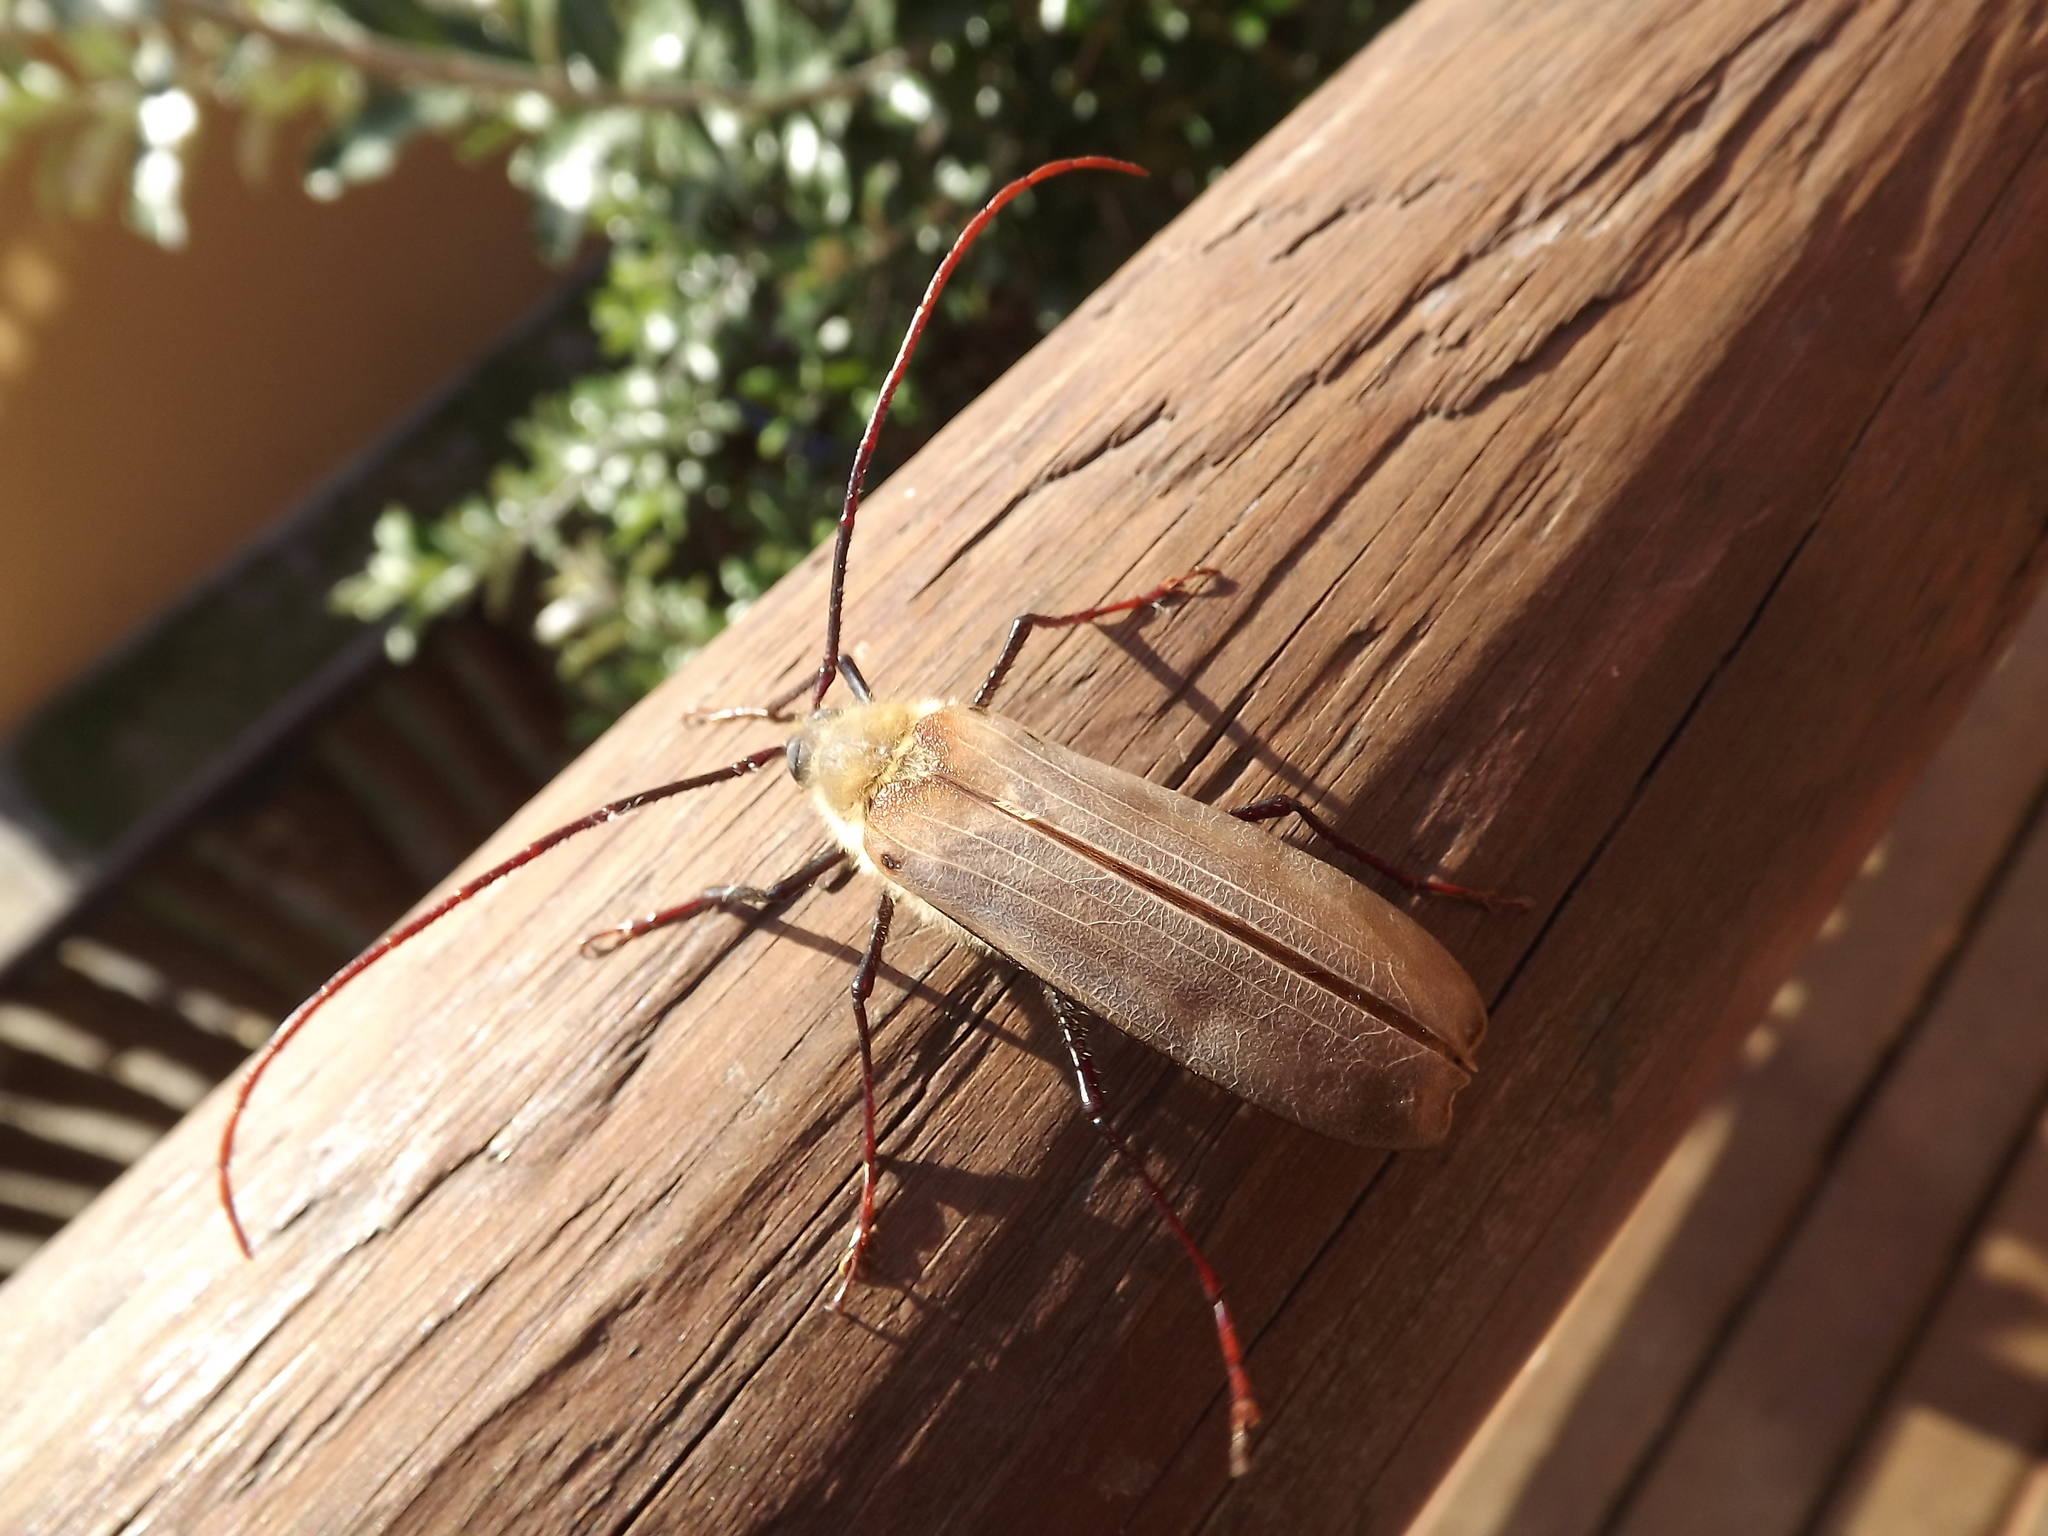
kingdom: Animalia
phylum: Arthropoda
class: Insecta
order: Coleoptera
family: Cerambycidae
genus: Erioderus
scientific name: Erioderus hirtus
